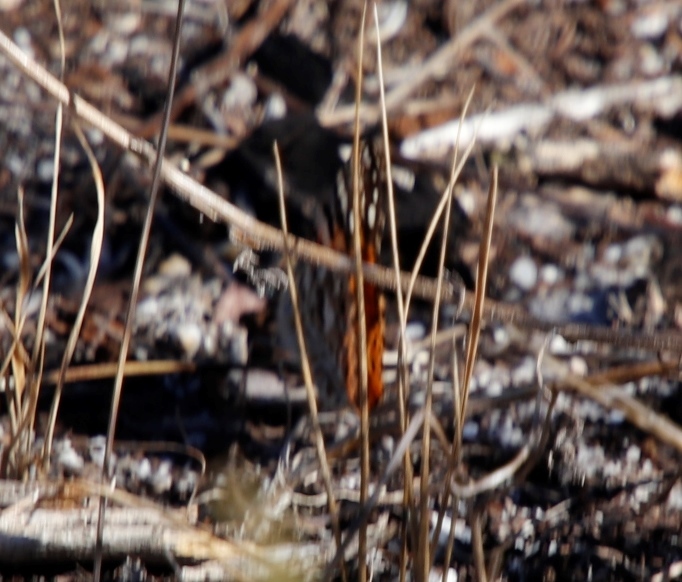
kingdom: Animalia
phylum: Arthropoda
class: Insecta
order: Lepidoptera
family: Nymphalidae
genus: Vanessa
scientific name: Vanessa cardui
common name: Painted lady
